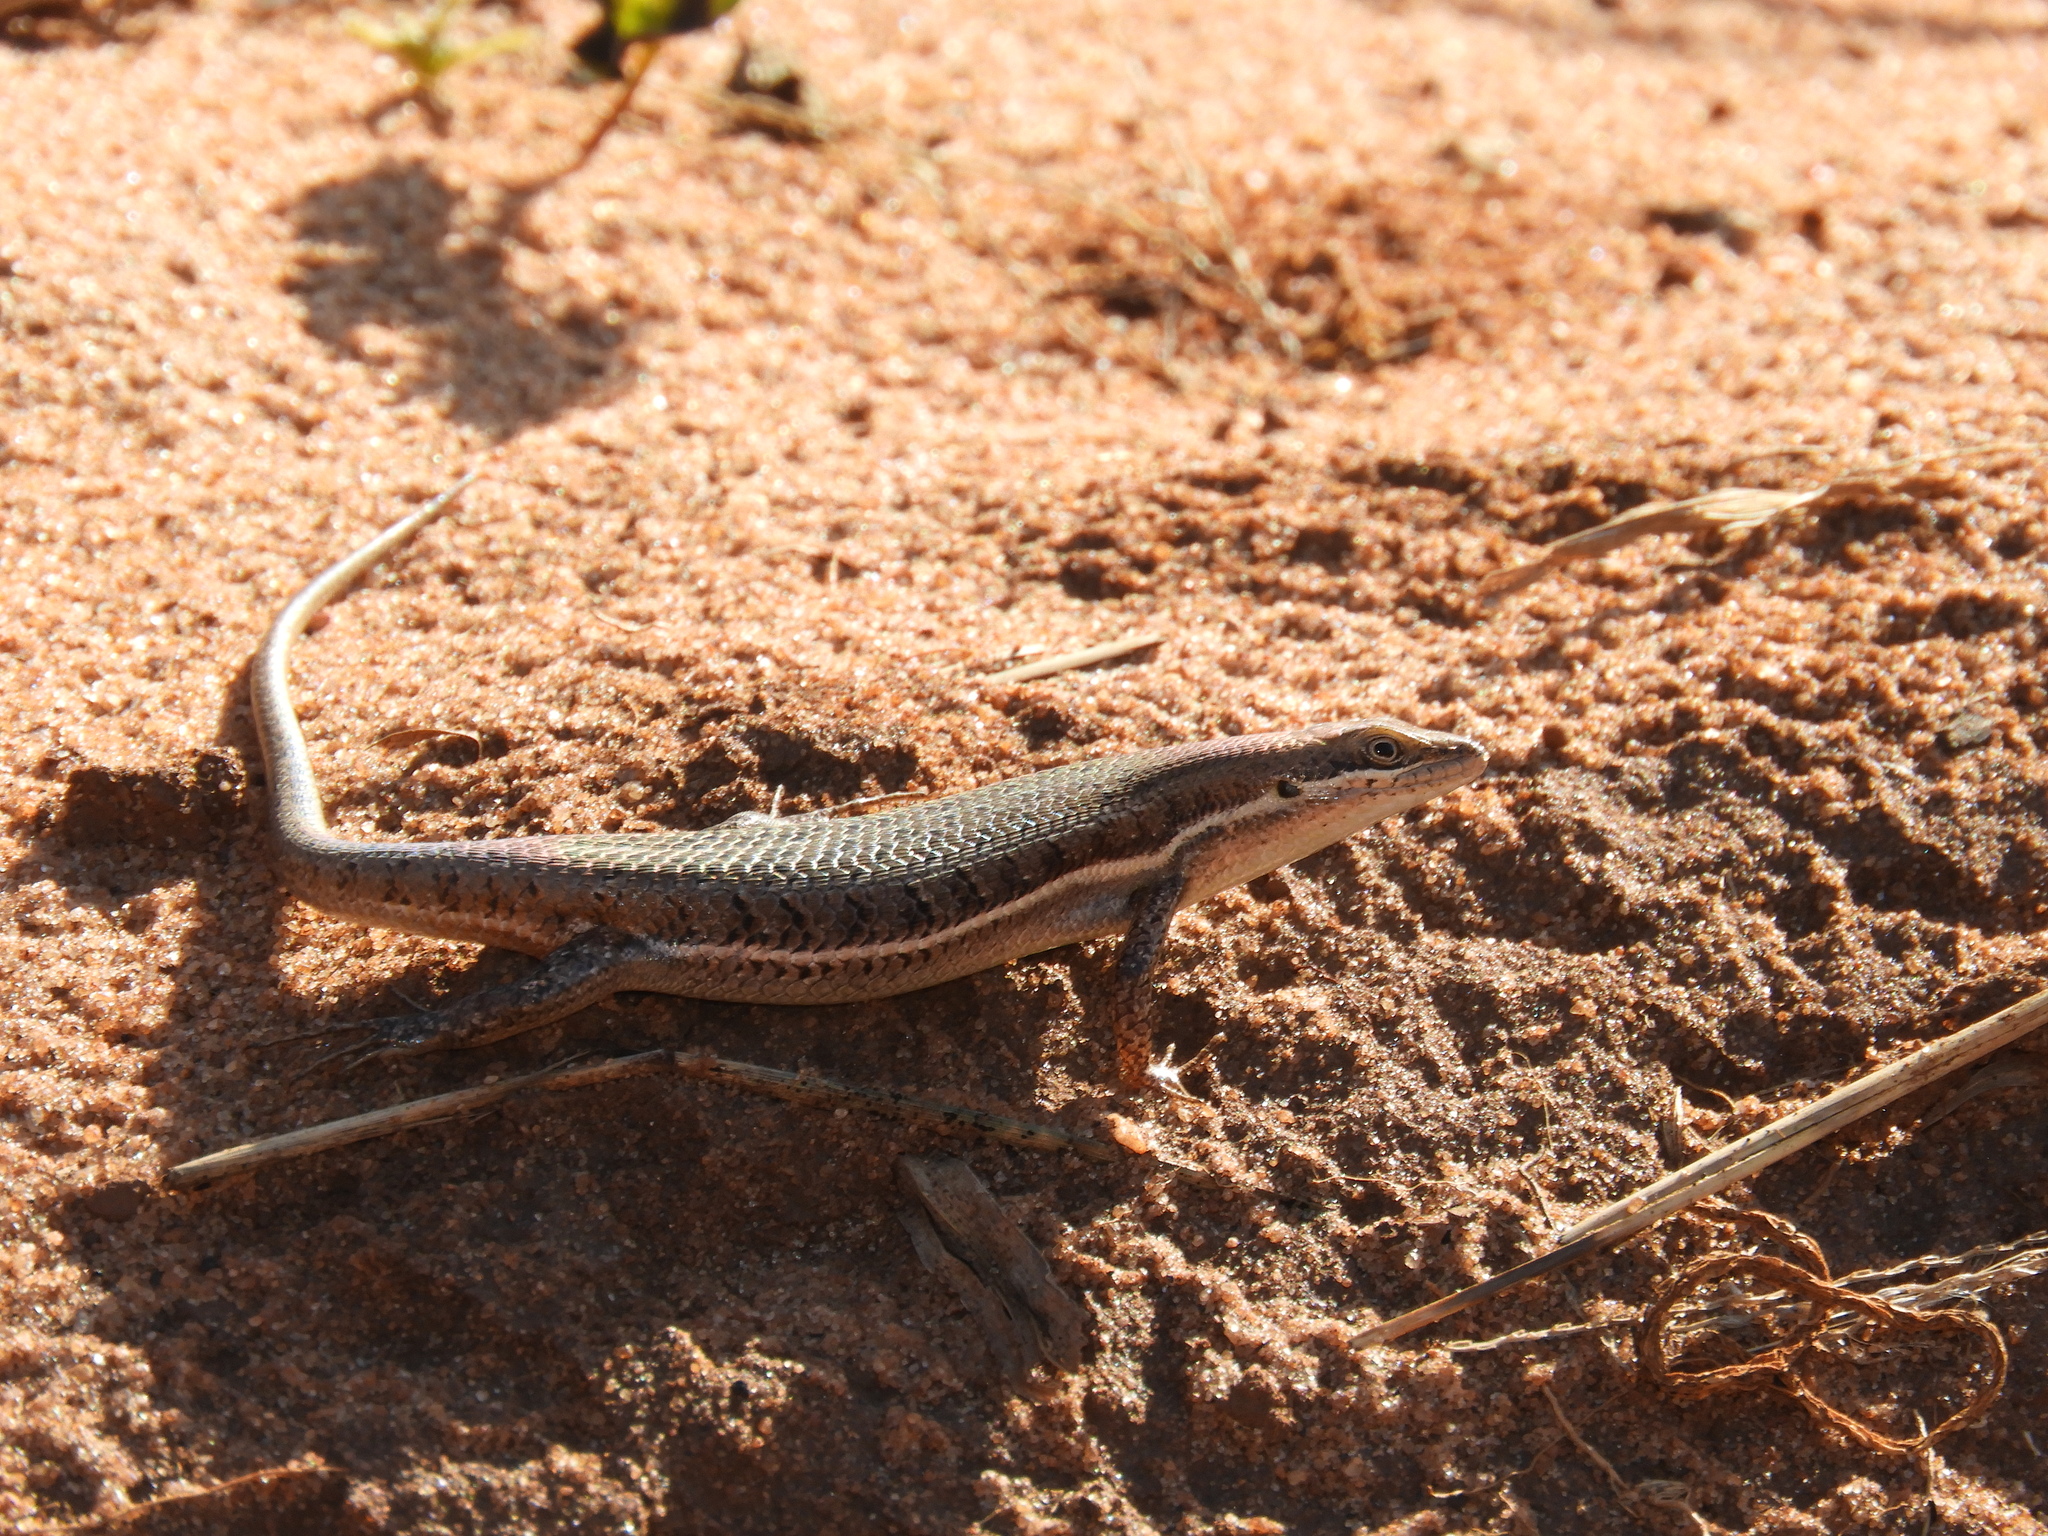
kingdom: Animalia
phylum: Chordata
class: Squamata
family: Scincidae
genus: Trachylepis
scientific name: Trachylepis varia
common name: Eastern variable skink
